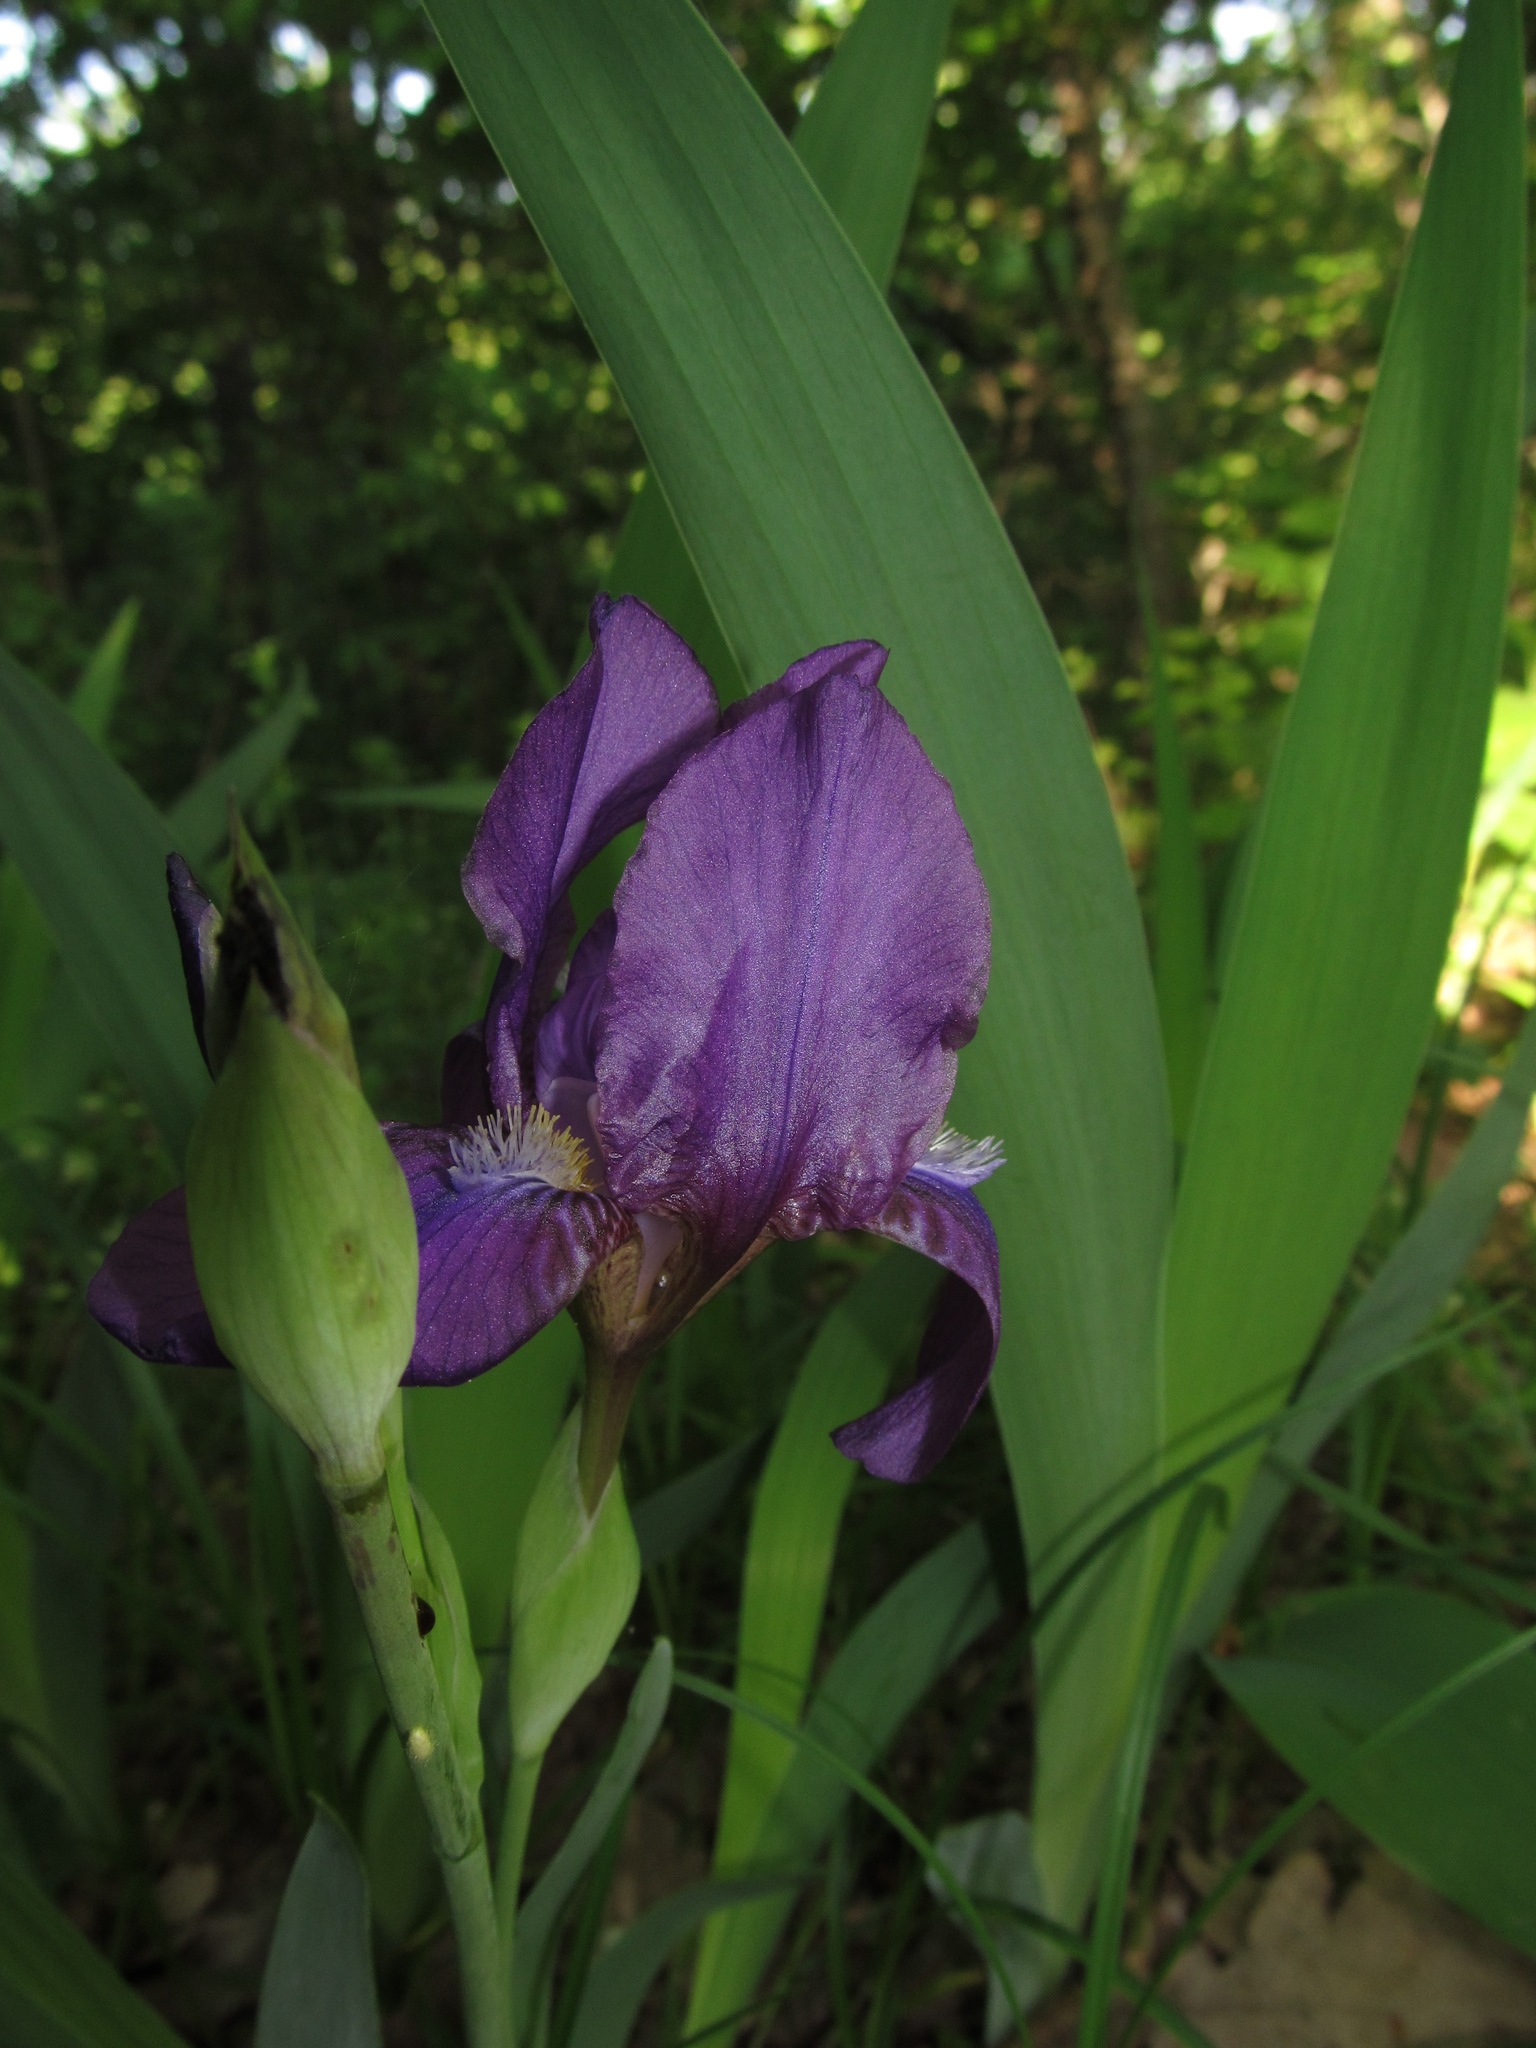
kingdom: Plantae
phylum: Tracheophyta
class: Liliopsida
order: Asparagales
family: Iridaceae
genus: Iris
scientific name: Iris aphylla
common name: Stool iris
